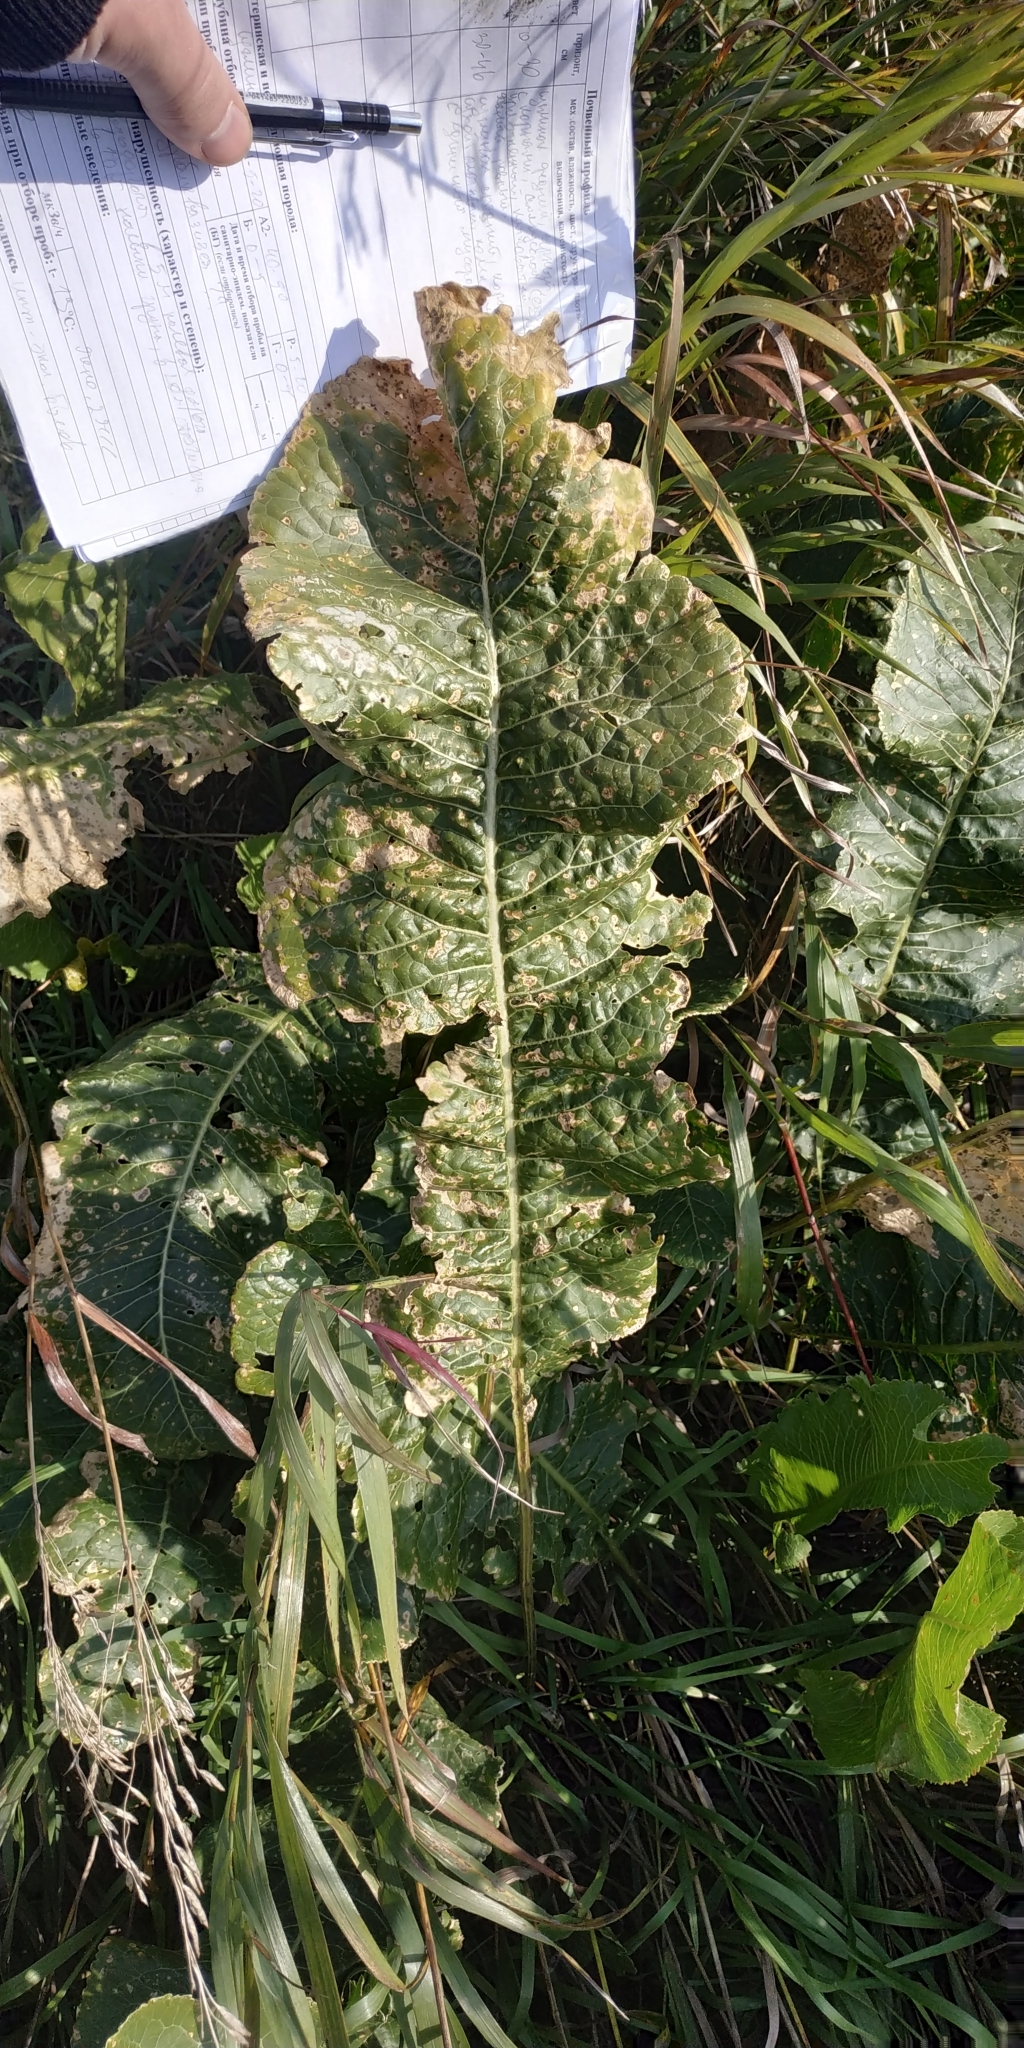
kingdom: Plantae
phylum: Tracheophyta
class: Magnoliopsida
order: Brassicales
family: Brassicaceae
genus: Armoracia
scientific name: Armoracia rusticana
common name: Horseradish
